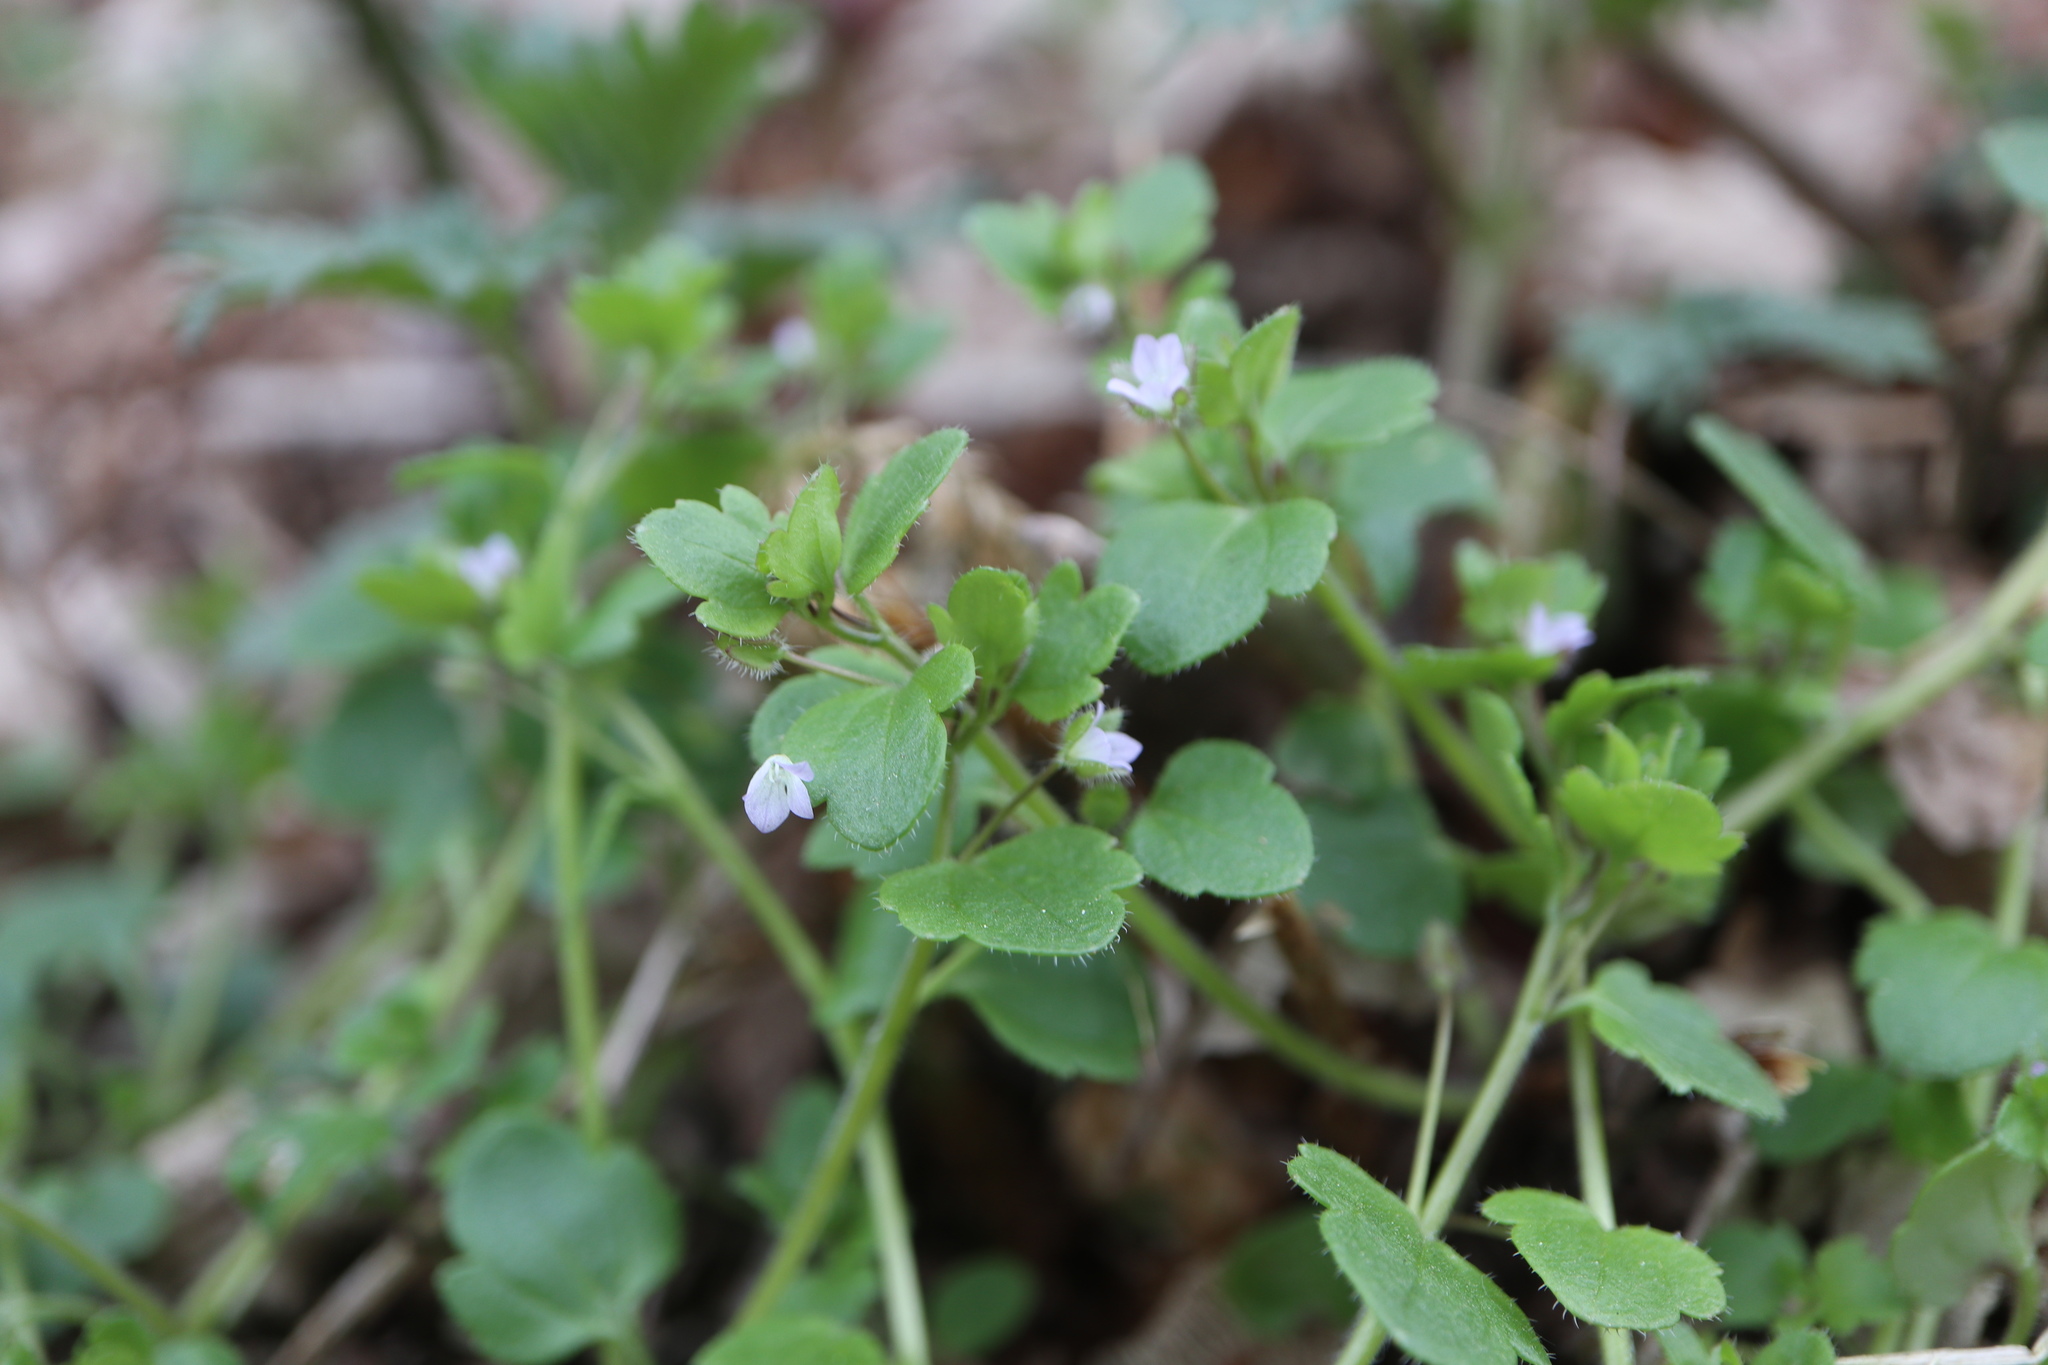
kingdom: Plantae
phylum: Tracheophyta
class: Magnoliopsida
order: Lamiales
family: Plantaginaceae
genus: Veronica
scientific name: Veronica sublobata
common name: False ivy-leaved speedwell
